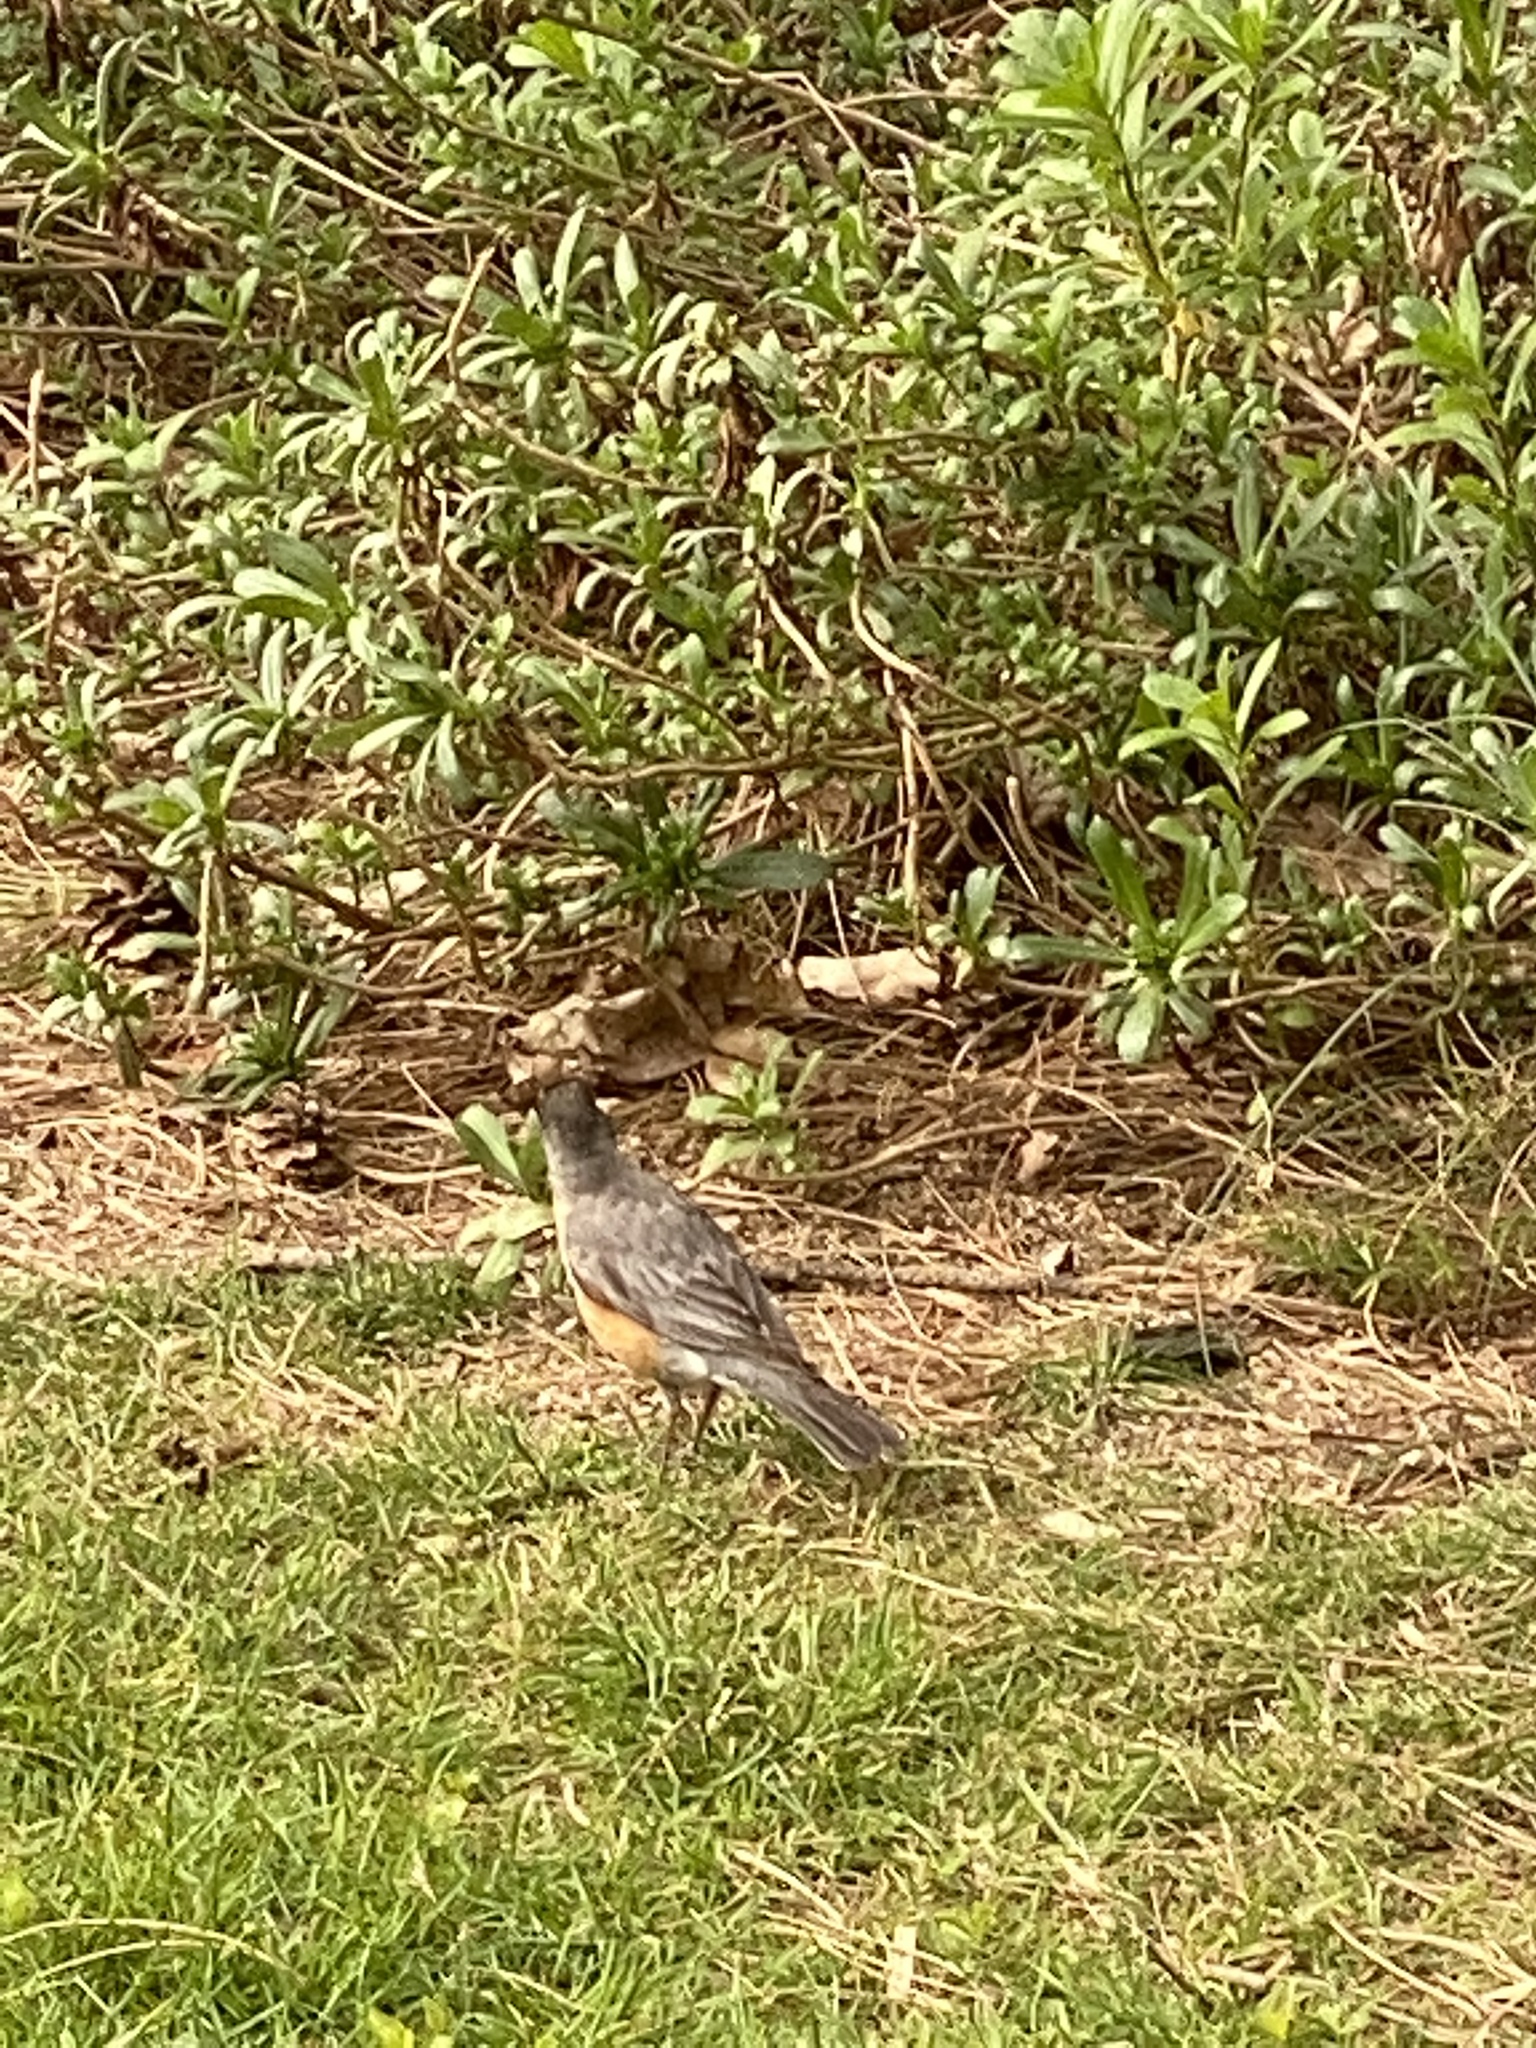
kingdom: Animalia
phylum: Chordata
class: Aves
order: Passeriformes
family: Turdidae
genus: Turdus
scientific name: Turdus migratorius
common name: American robin
